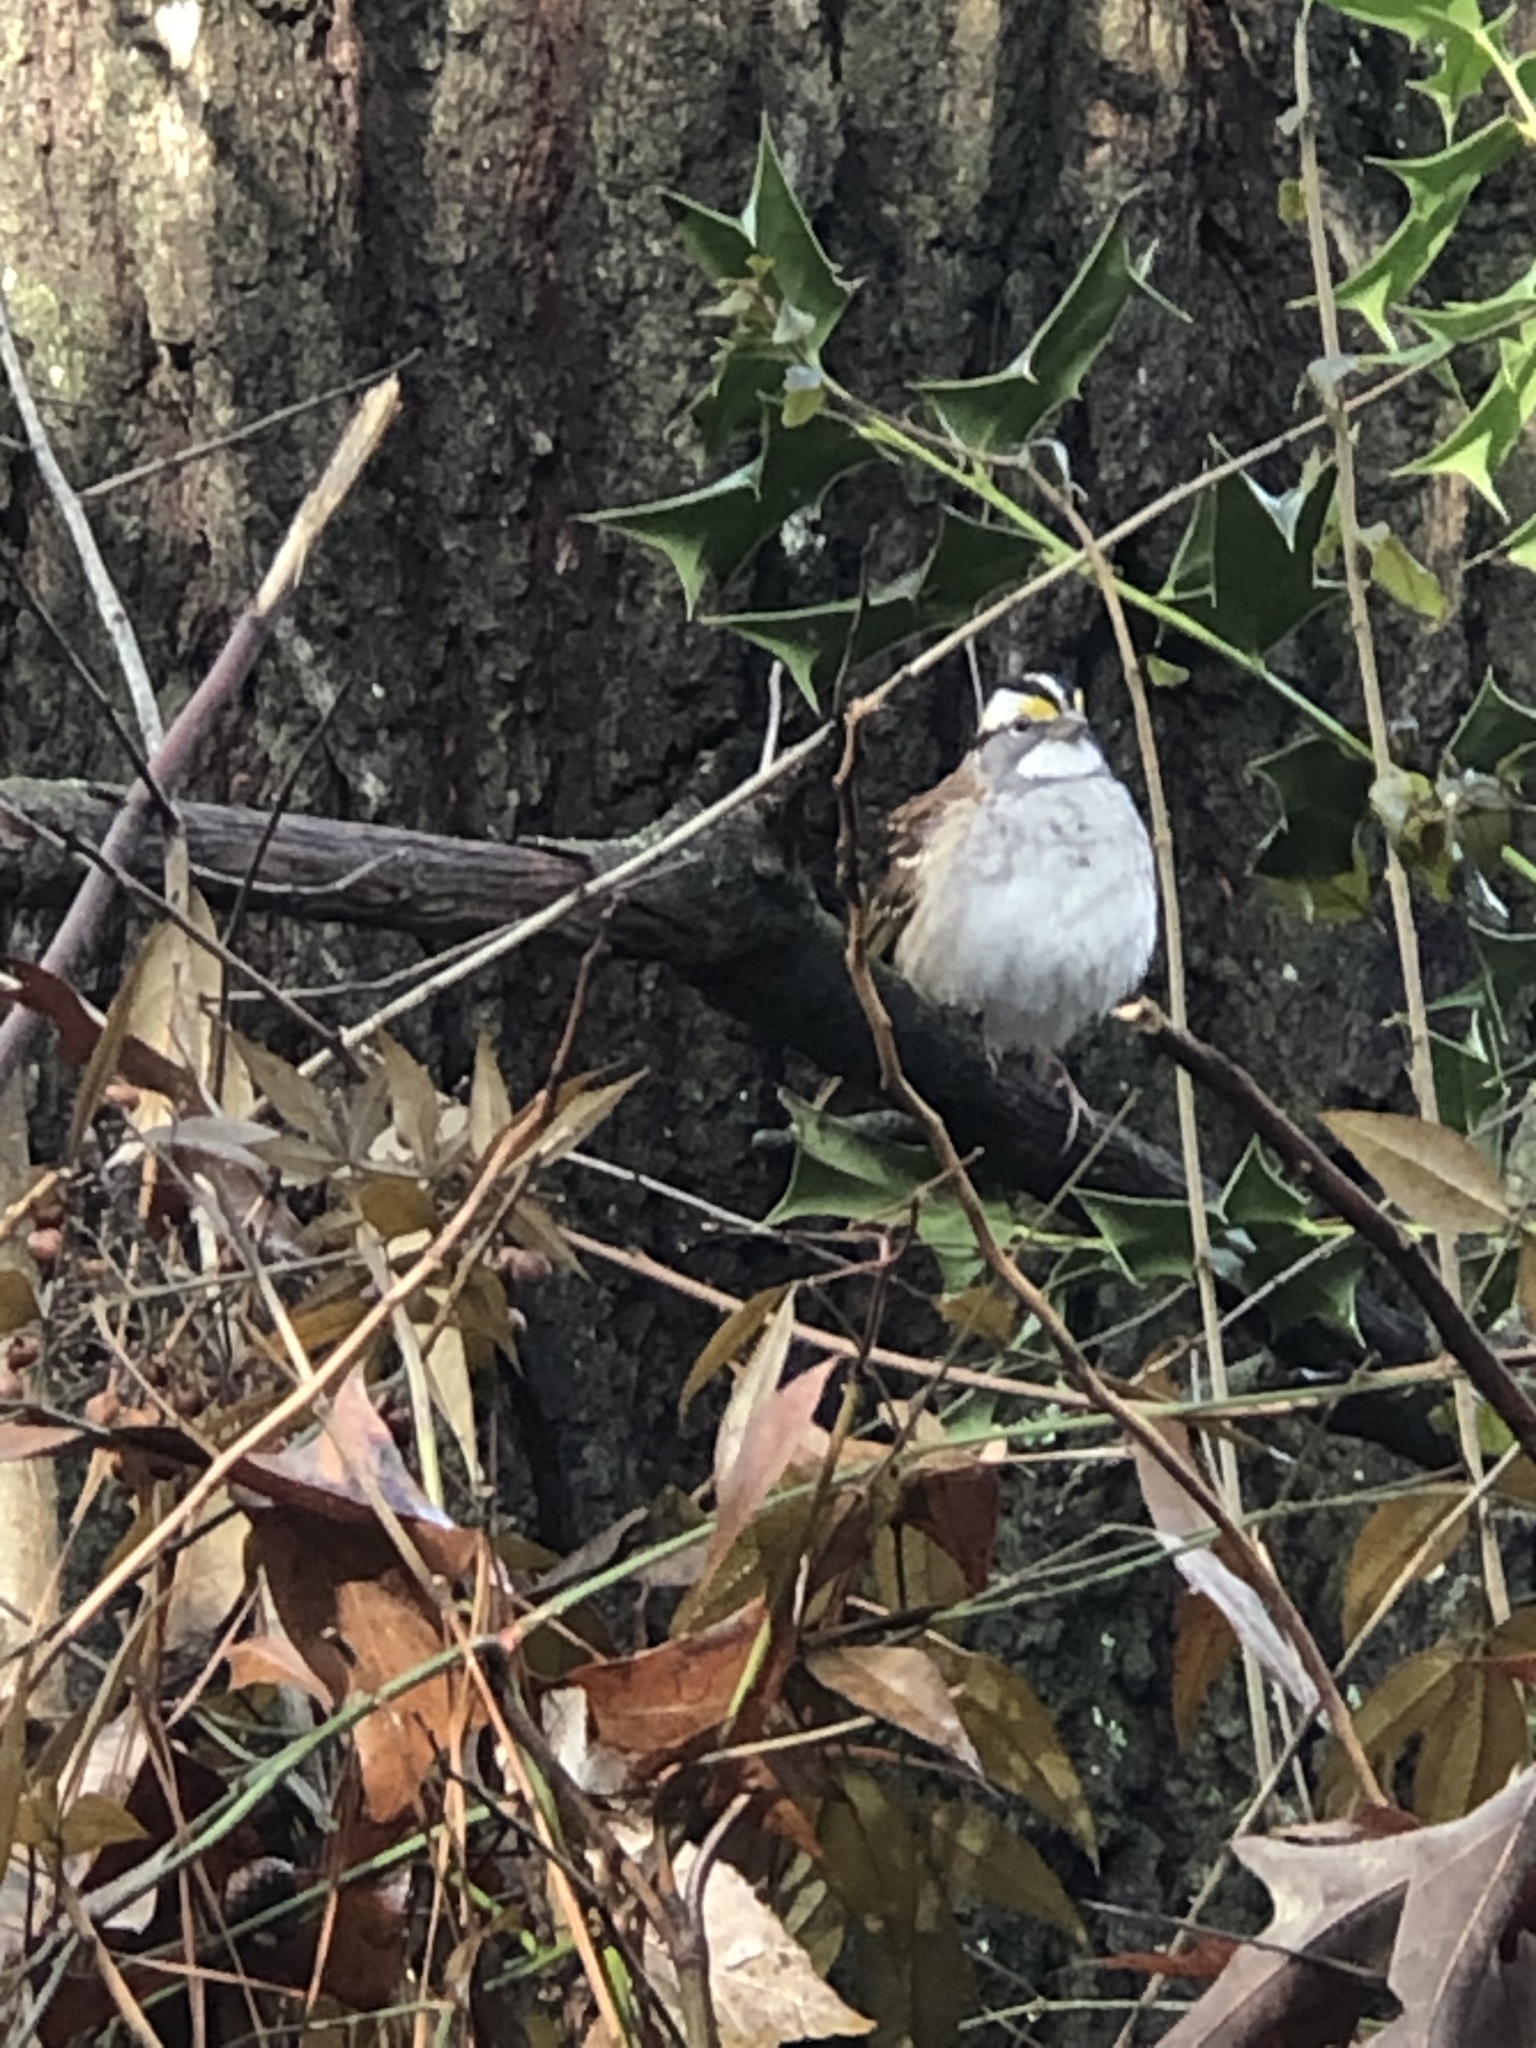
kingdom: Animalia
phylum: Chordata
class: Aves
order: Passeriformes
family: Passerellidae
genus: Zonotrichia
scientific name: Zonotrichia albicollis
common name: White-throated sparrow
